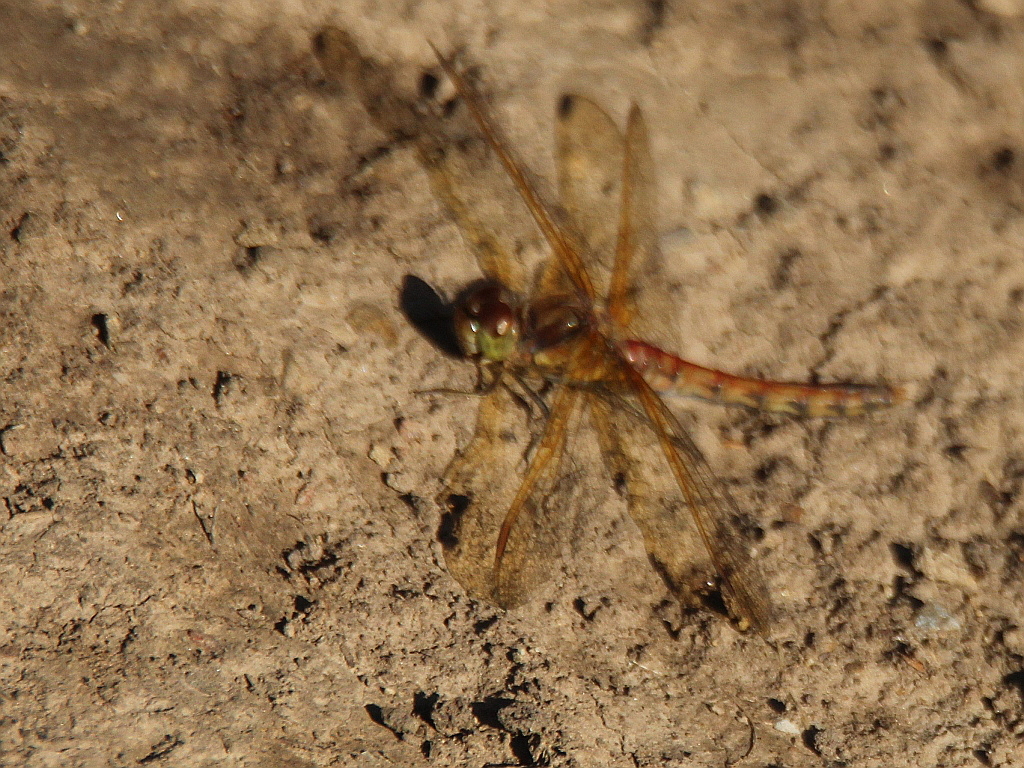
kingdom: Animalia
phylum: Arthropoda
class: Insecta
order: Odonata
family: Libellulidae
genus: Sympetrum
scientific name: Sympetrum striolatum
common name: Common darter
